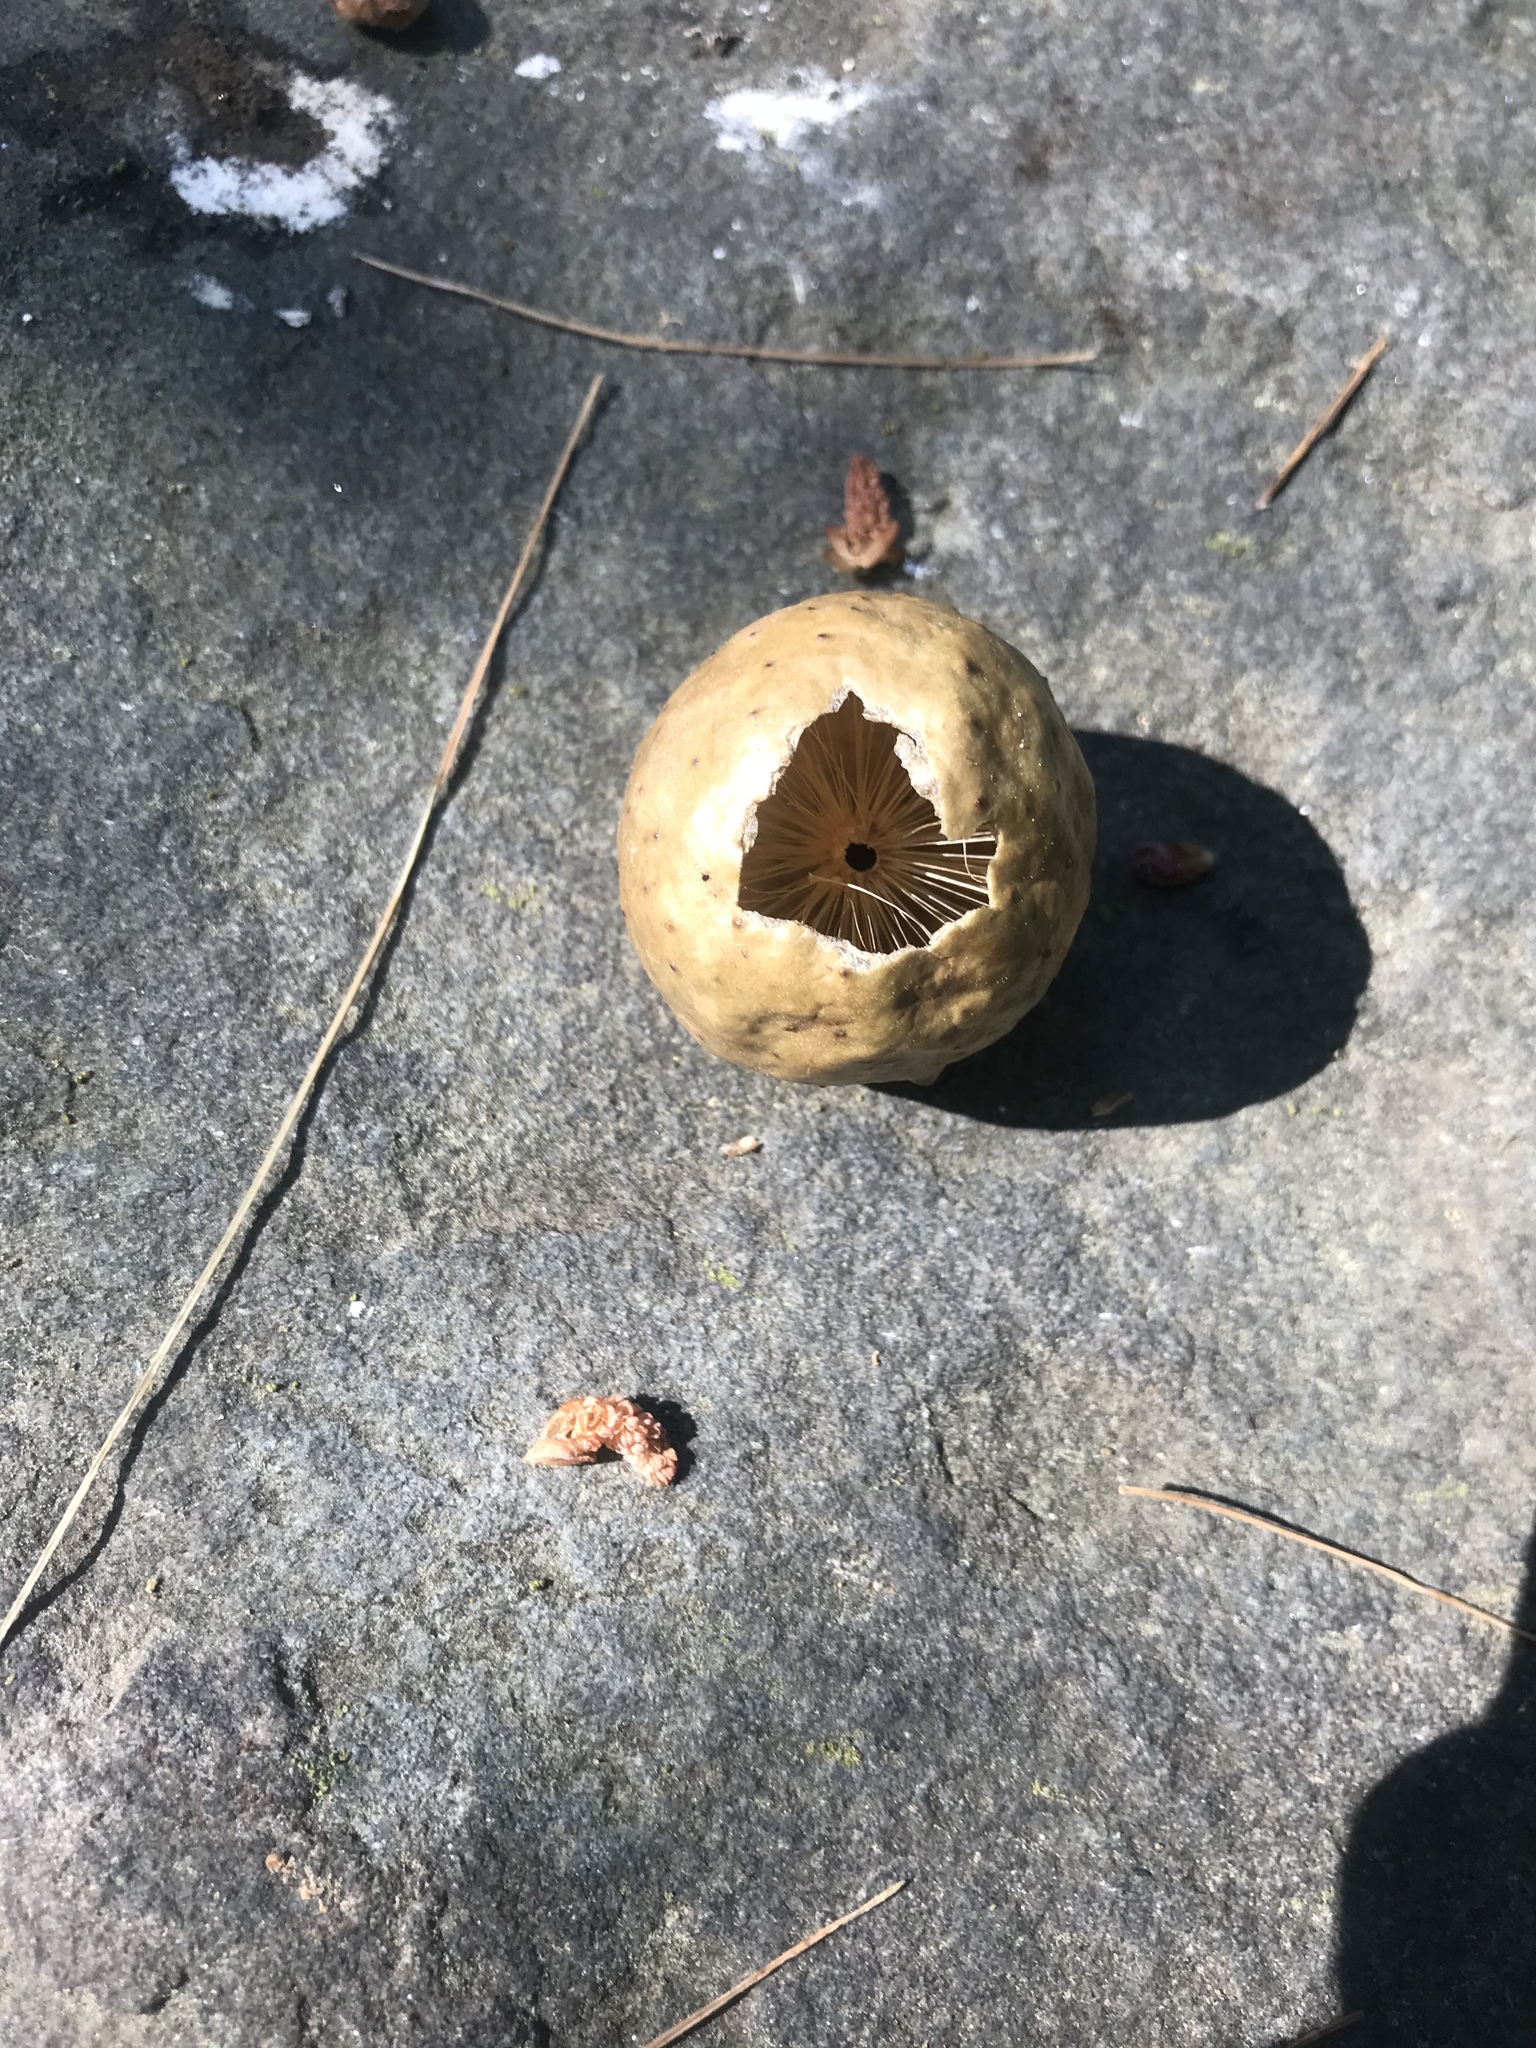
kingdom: Animalia
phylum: Arthropoda
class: Insecta
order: Hymenoptera
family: Cynipidae
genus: Amphibolips
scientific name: Amphibolips
